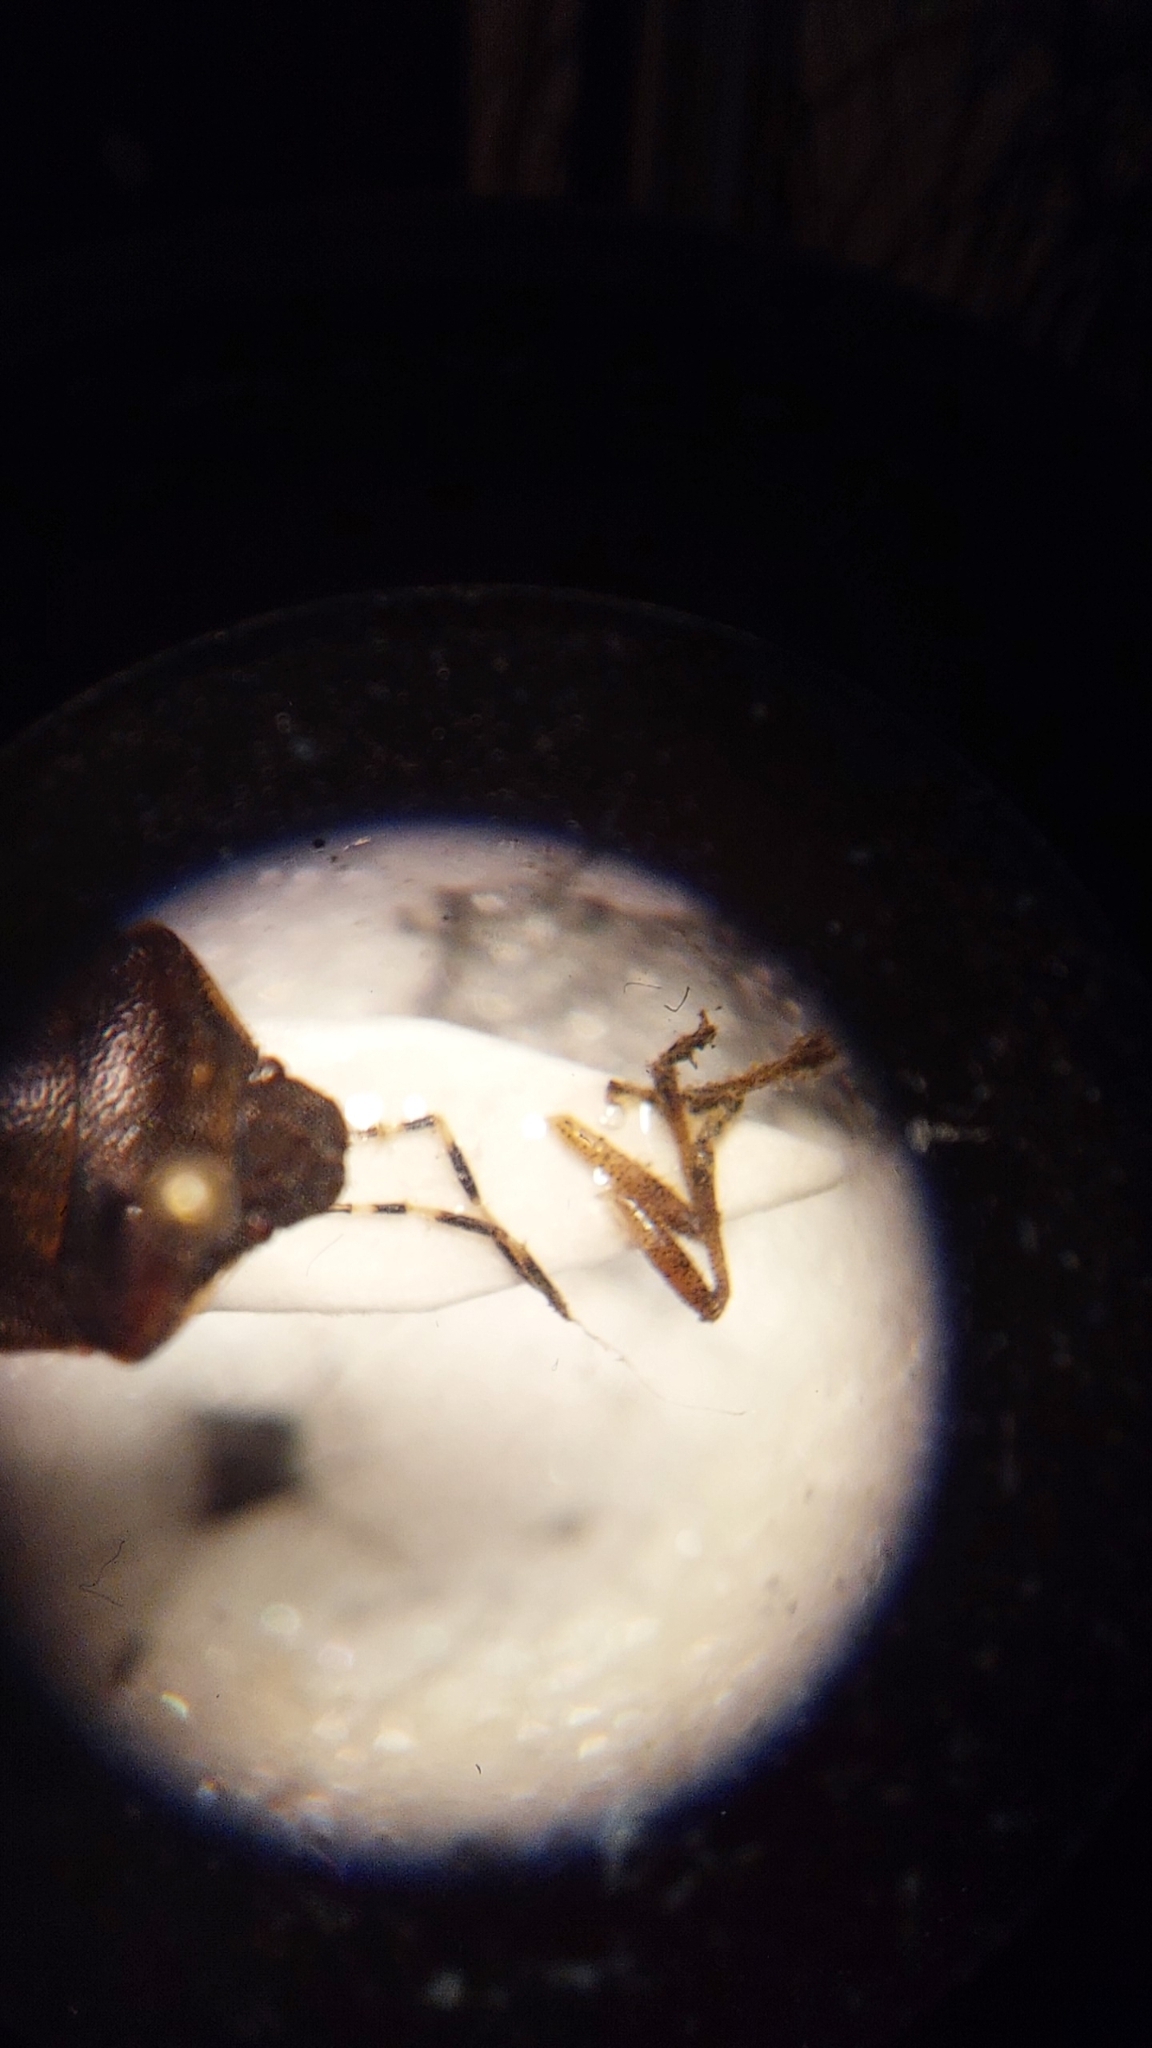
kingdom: Animalia
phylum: Arthropoda
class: Insecta
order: Hemiptera
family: Pentatomidae
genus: Holcostethus
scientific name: Holcostethus sphacelatus
